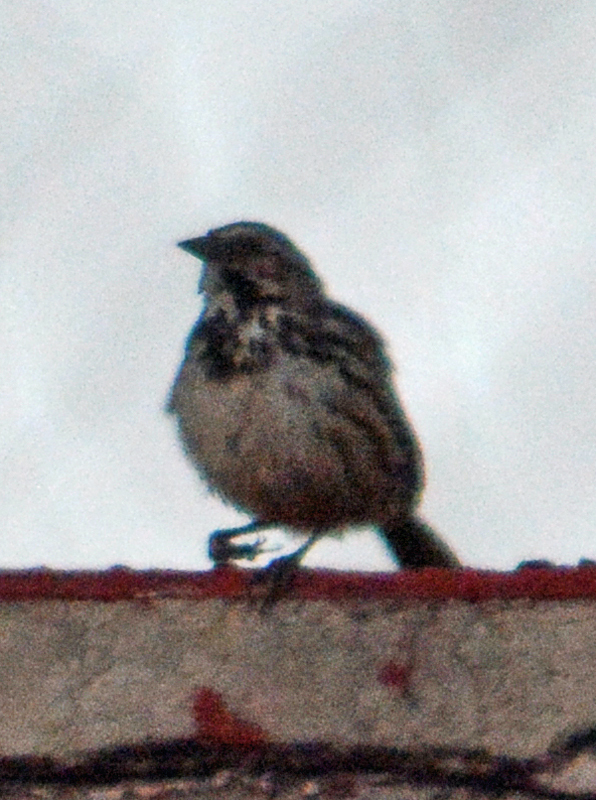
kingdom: Animalia
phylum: Chordata
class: Aves
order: Passeriformes
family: Passerellidae
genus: Melospiza
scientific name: Melospiza melodia
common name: Song sparrow
